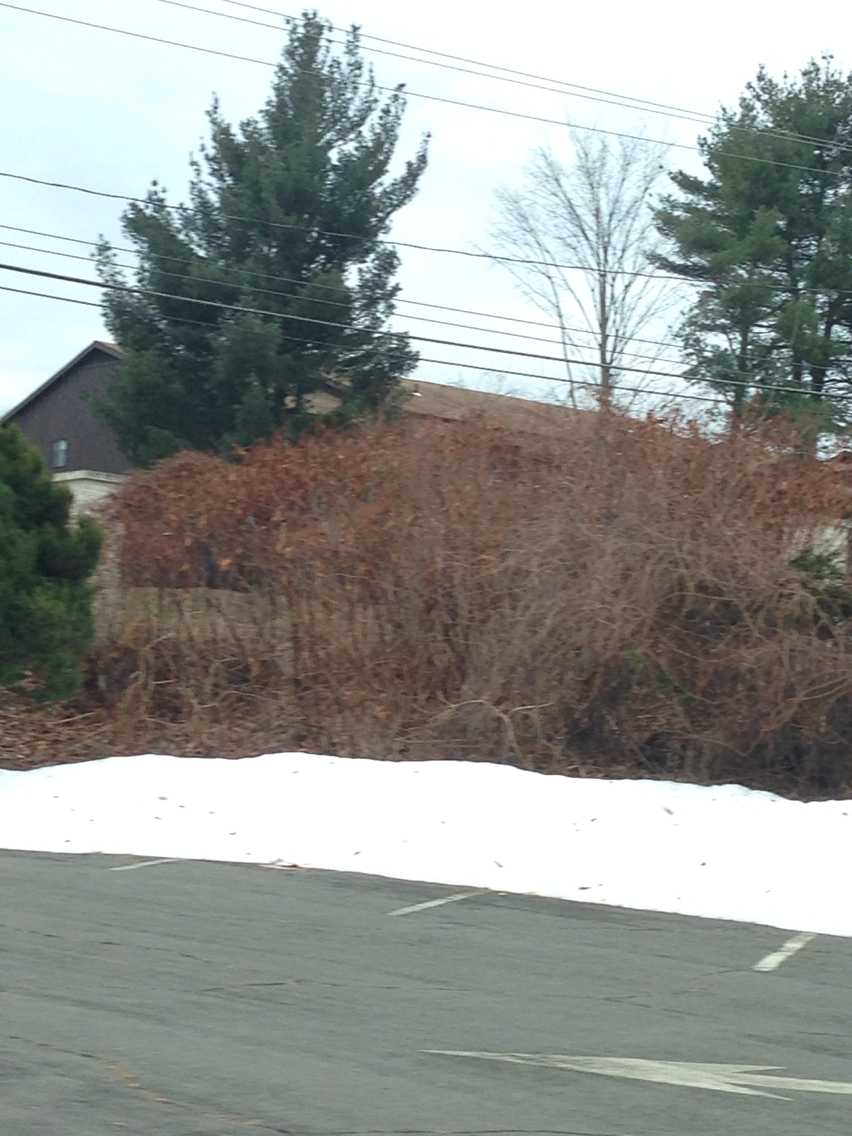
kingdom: Plantae
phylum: Tracheophyta
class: Magnoliopsida
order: Caryophyllales
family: Polygonaceae
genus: Reynoutria
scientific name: Reynoutria japonica
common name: Japanese knotweed
